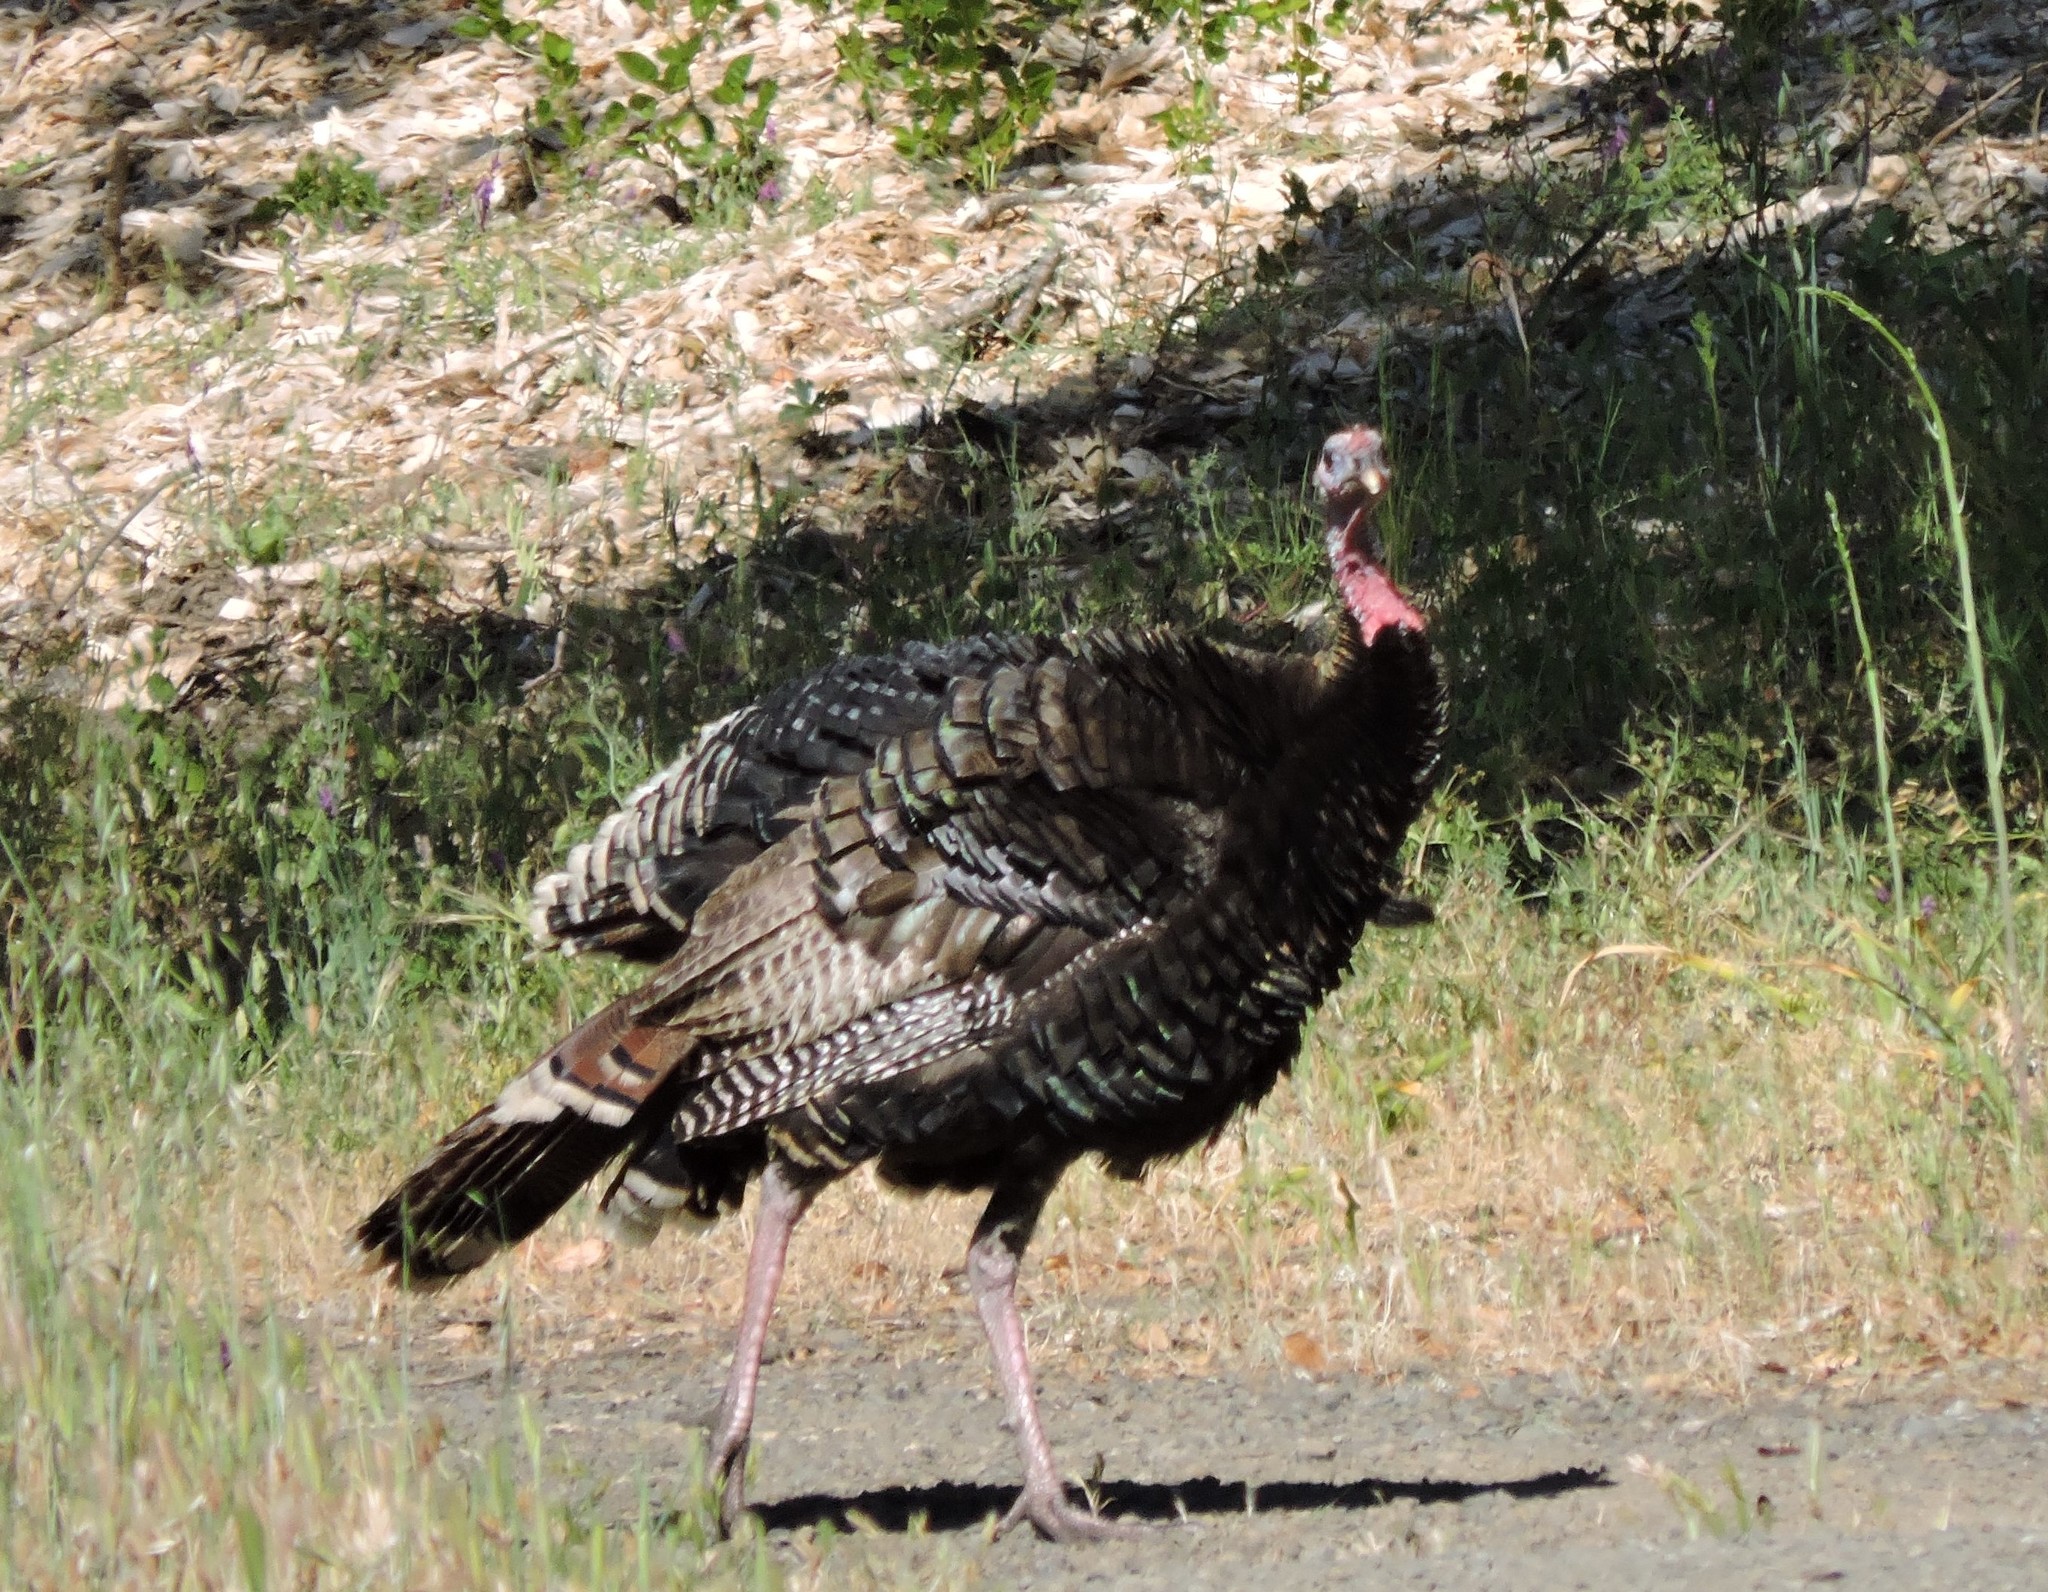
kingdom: Animalia
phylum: Chordata
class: Aves
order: Galliformes
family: Phasianidae
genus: Meleagris
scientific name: Meleagris gallopavo
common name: Wild turkey
